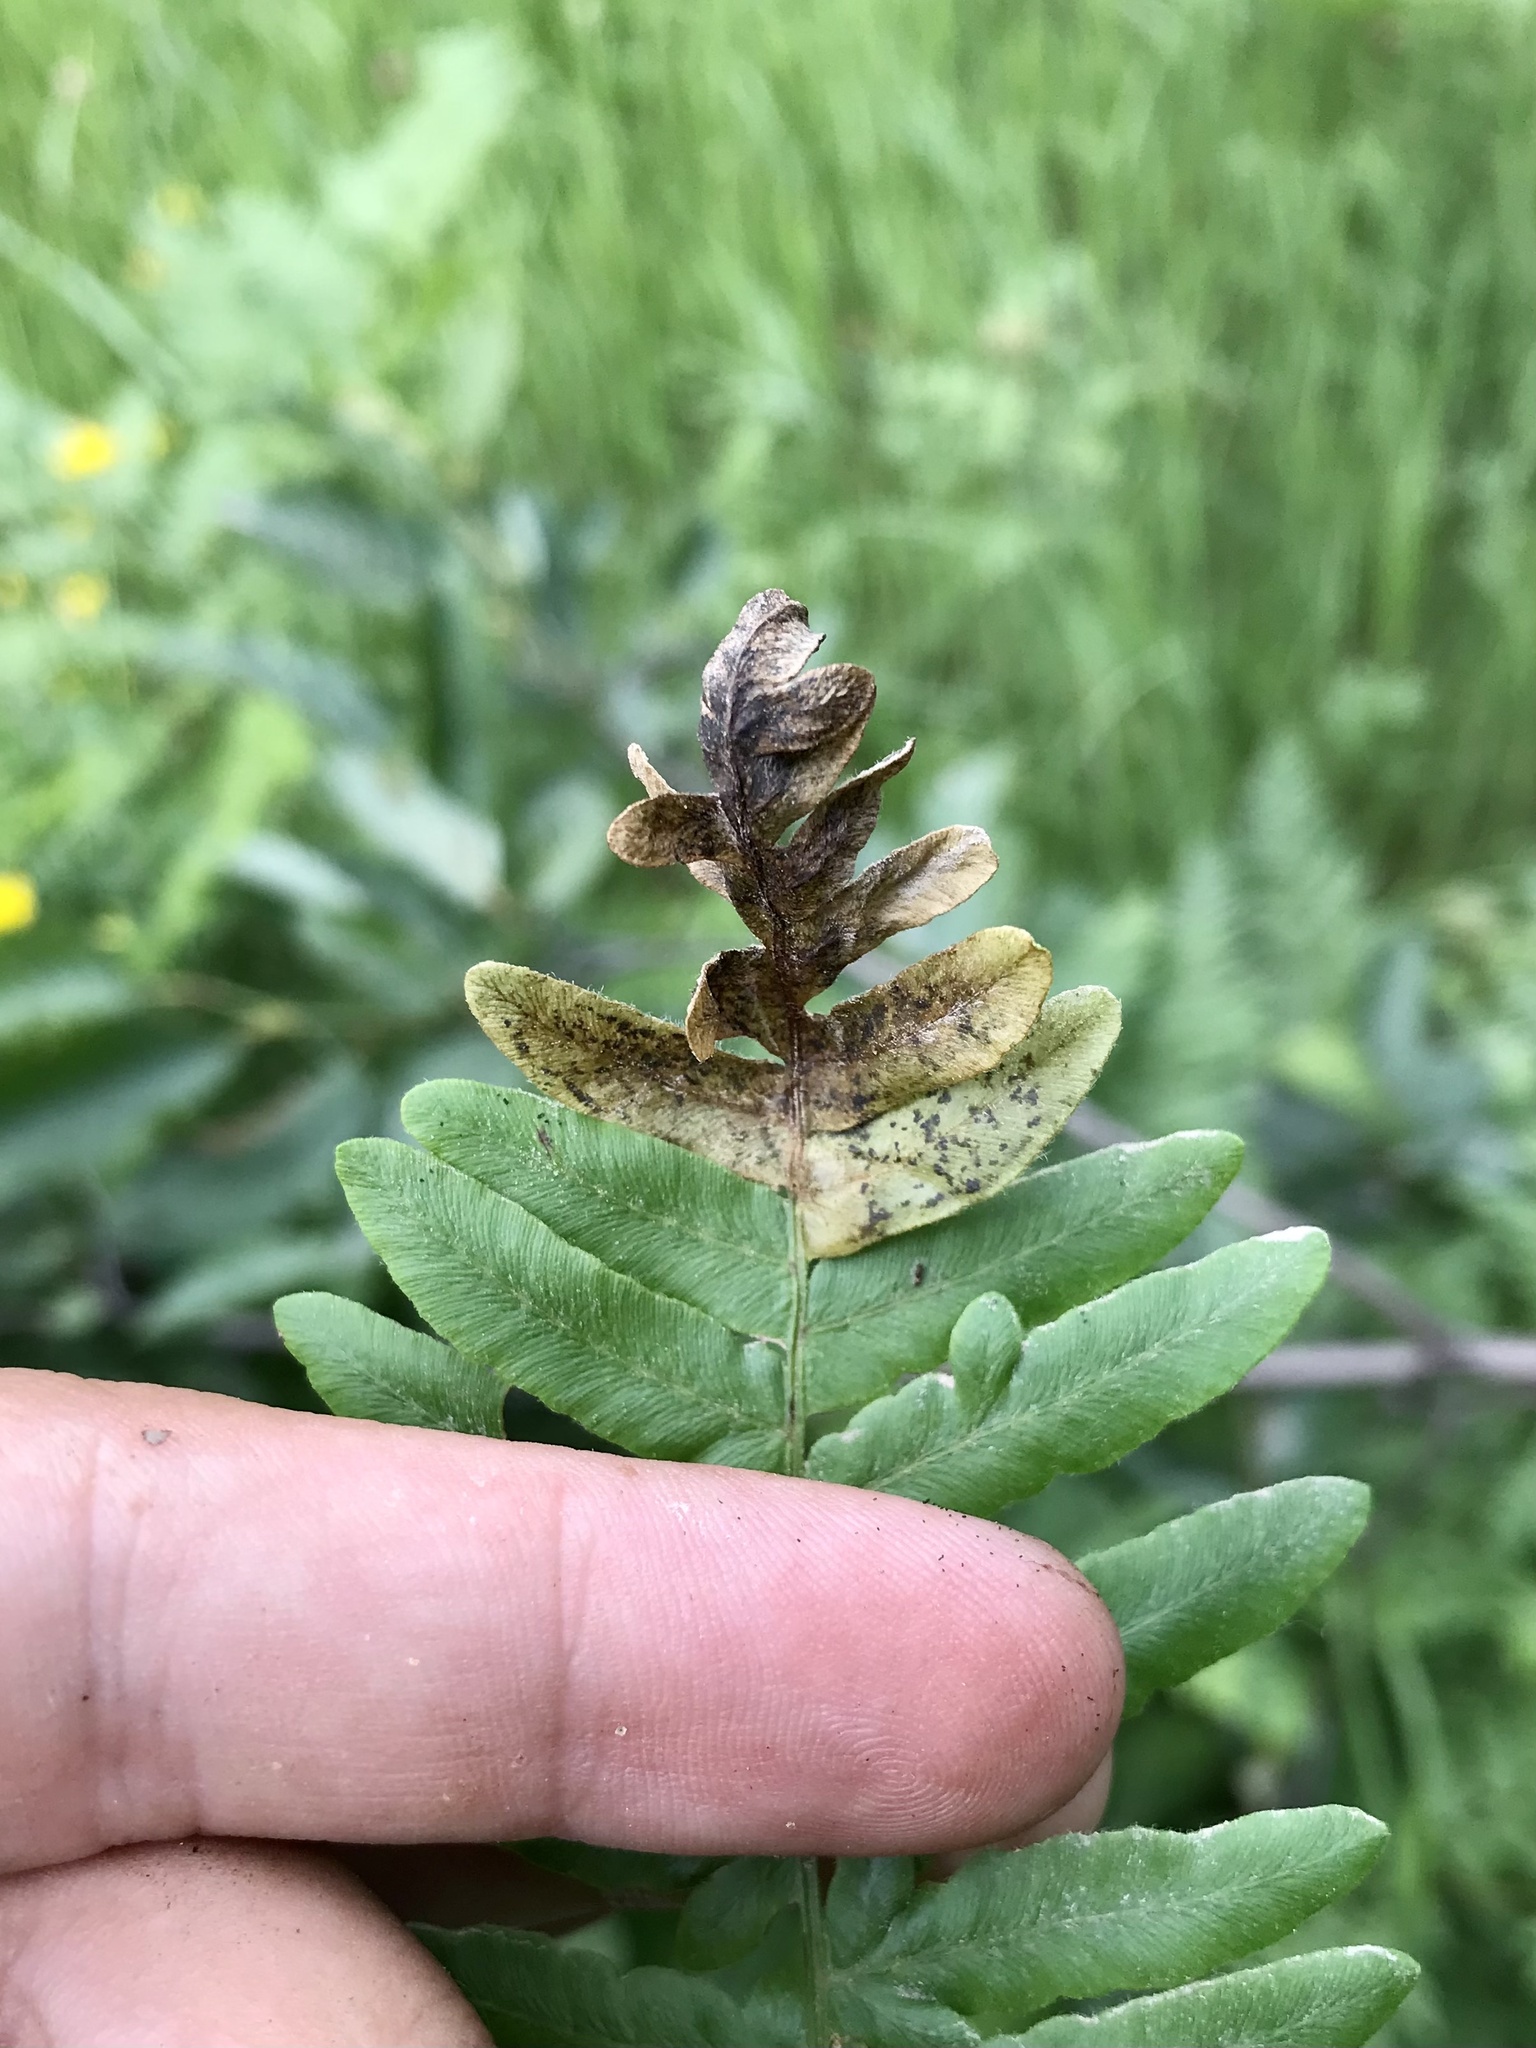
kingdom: Animalia
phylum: Arthropoda
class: Insecta
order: Diptera
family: Anthomyiidae
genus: Chirosia
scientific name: Chirosia spinosissima
